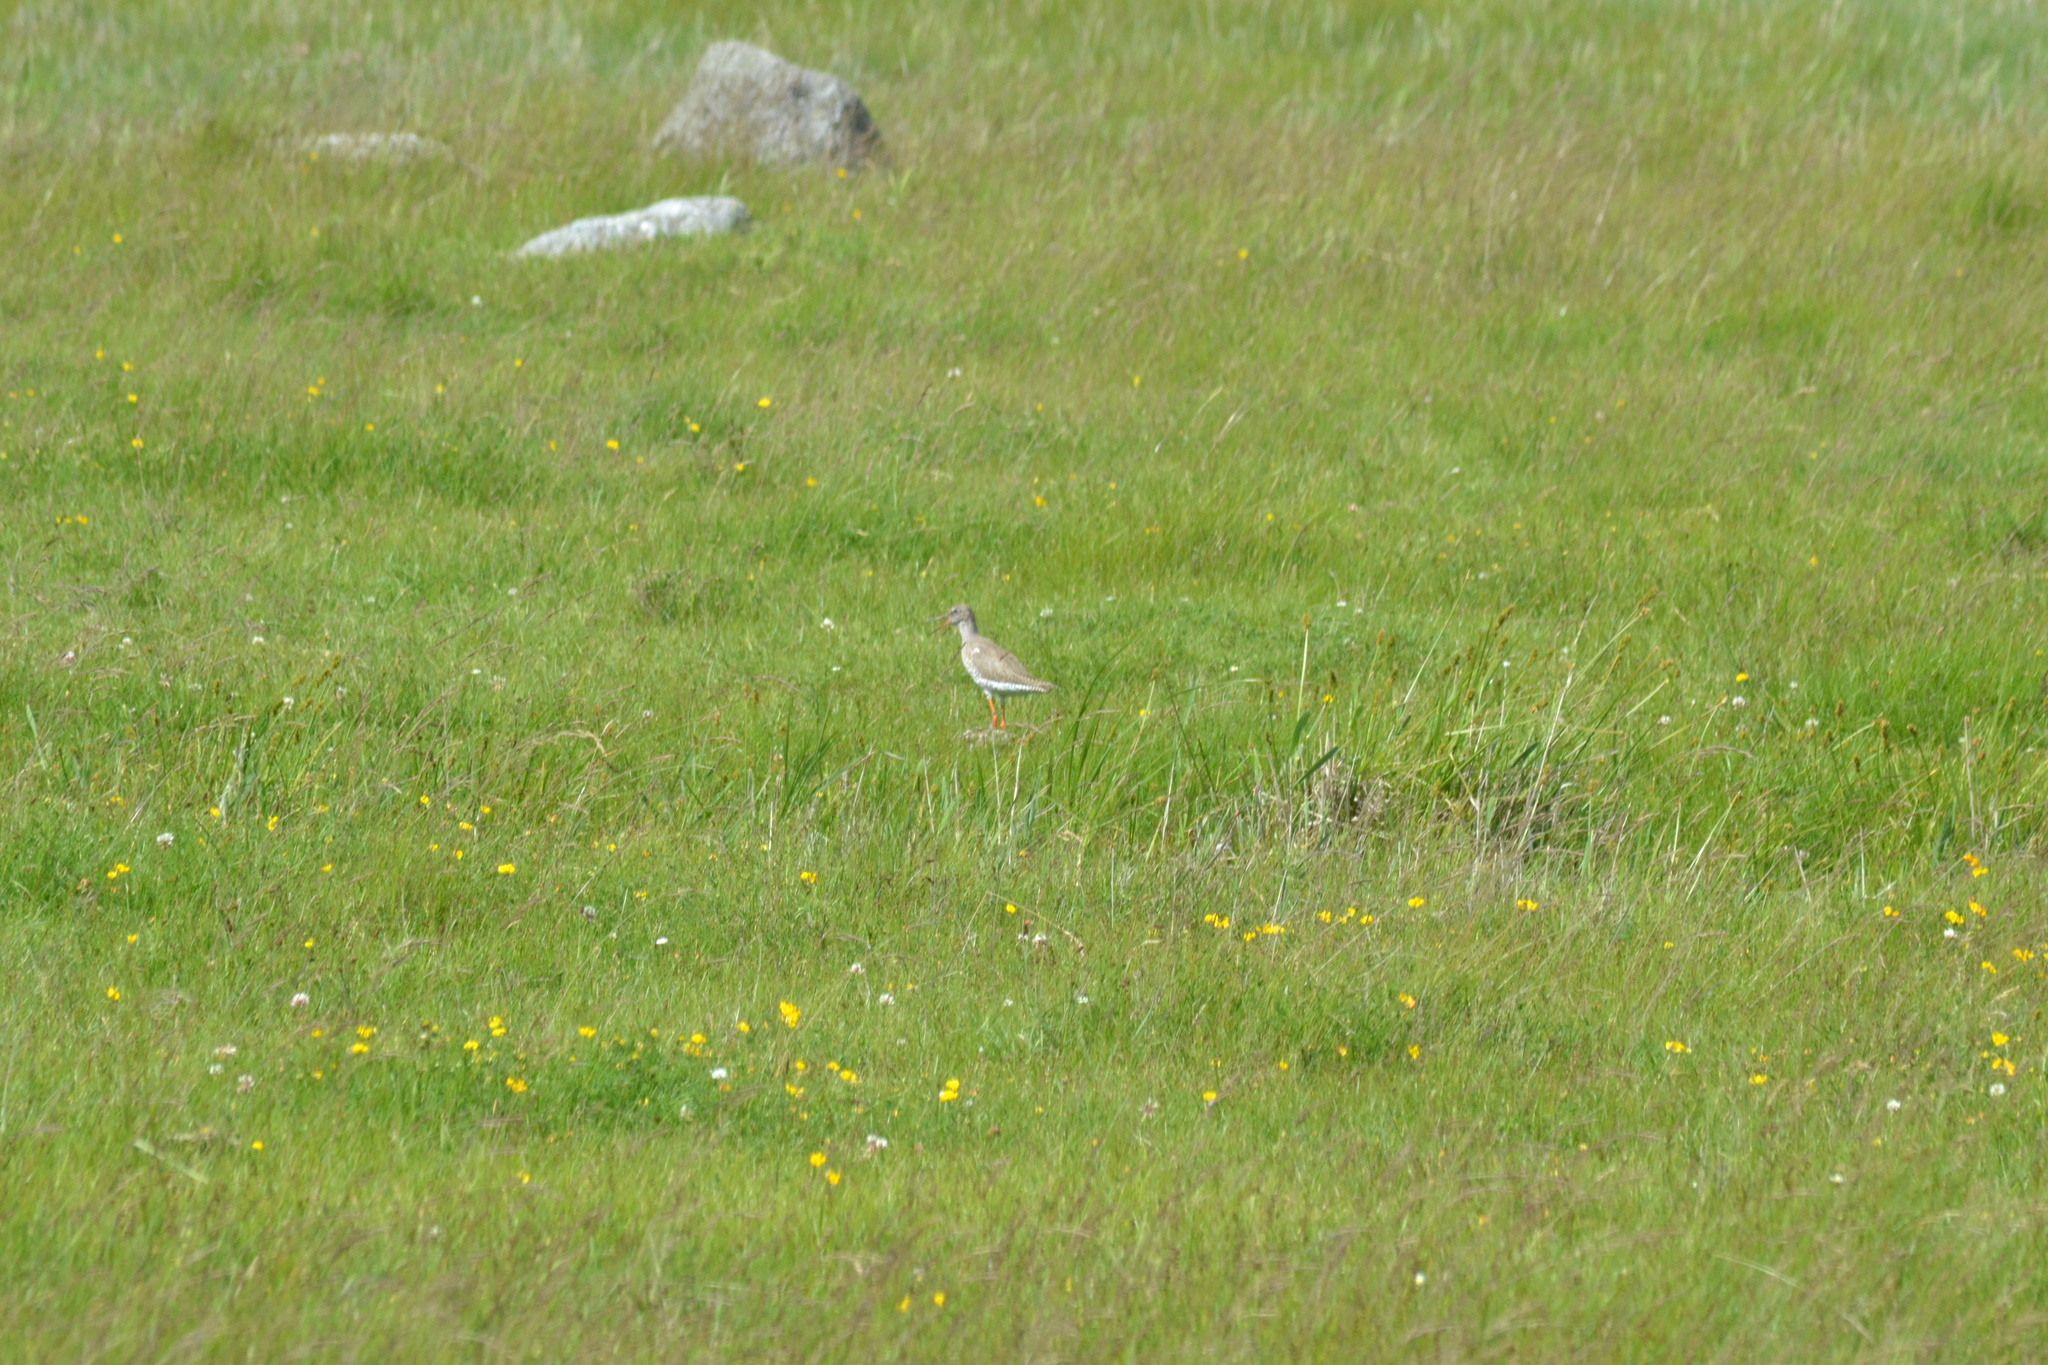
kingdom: Animalia
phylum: Chordata
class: Aves
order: Charadriiformes
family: Scolopacidae
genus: Tringa
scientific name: Tringa totanus
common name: Common redshank
